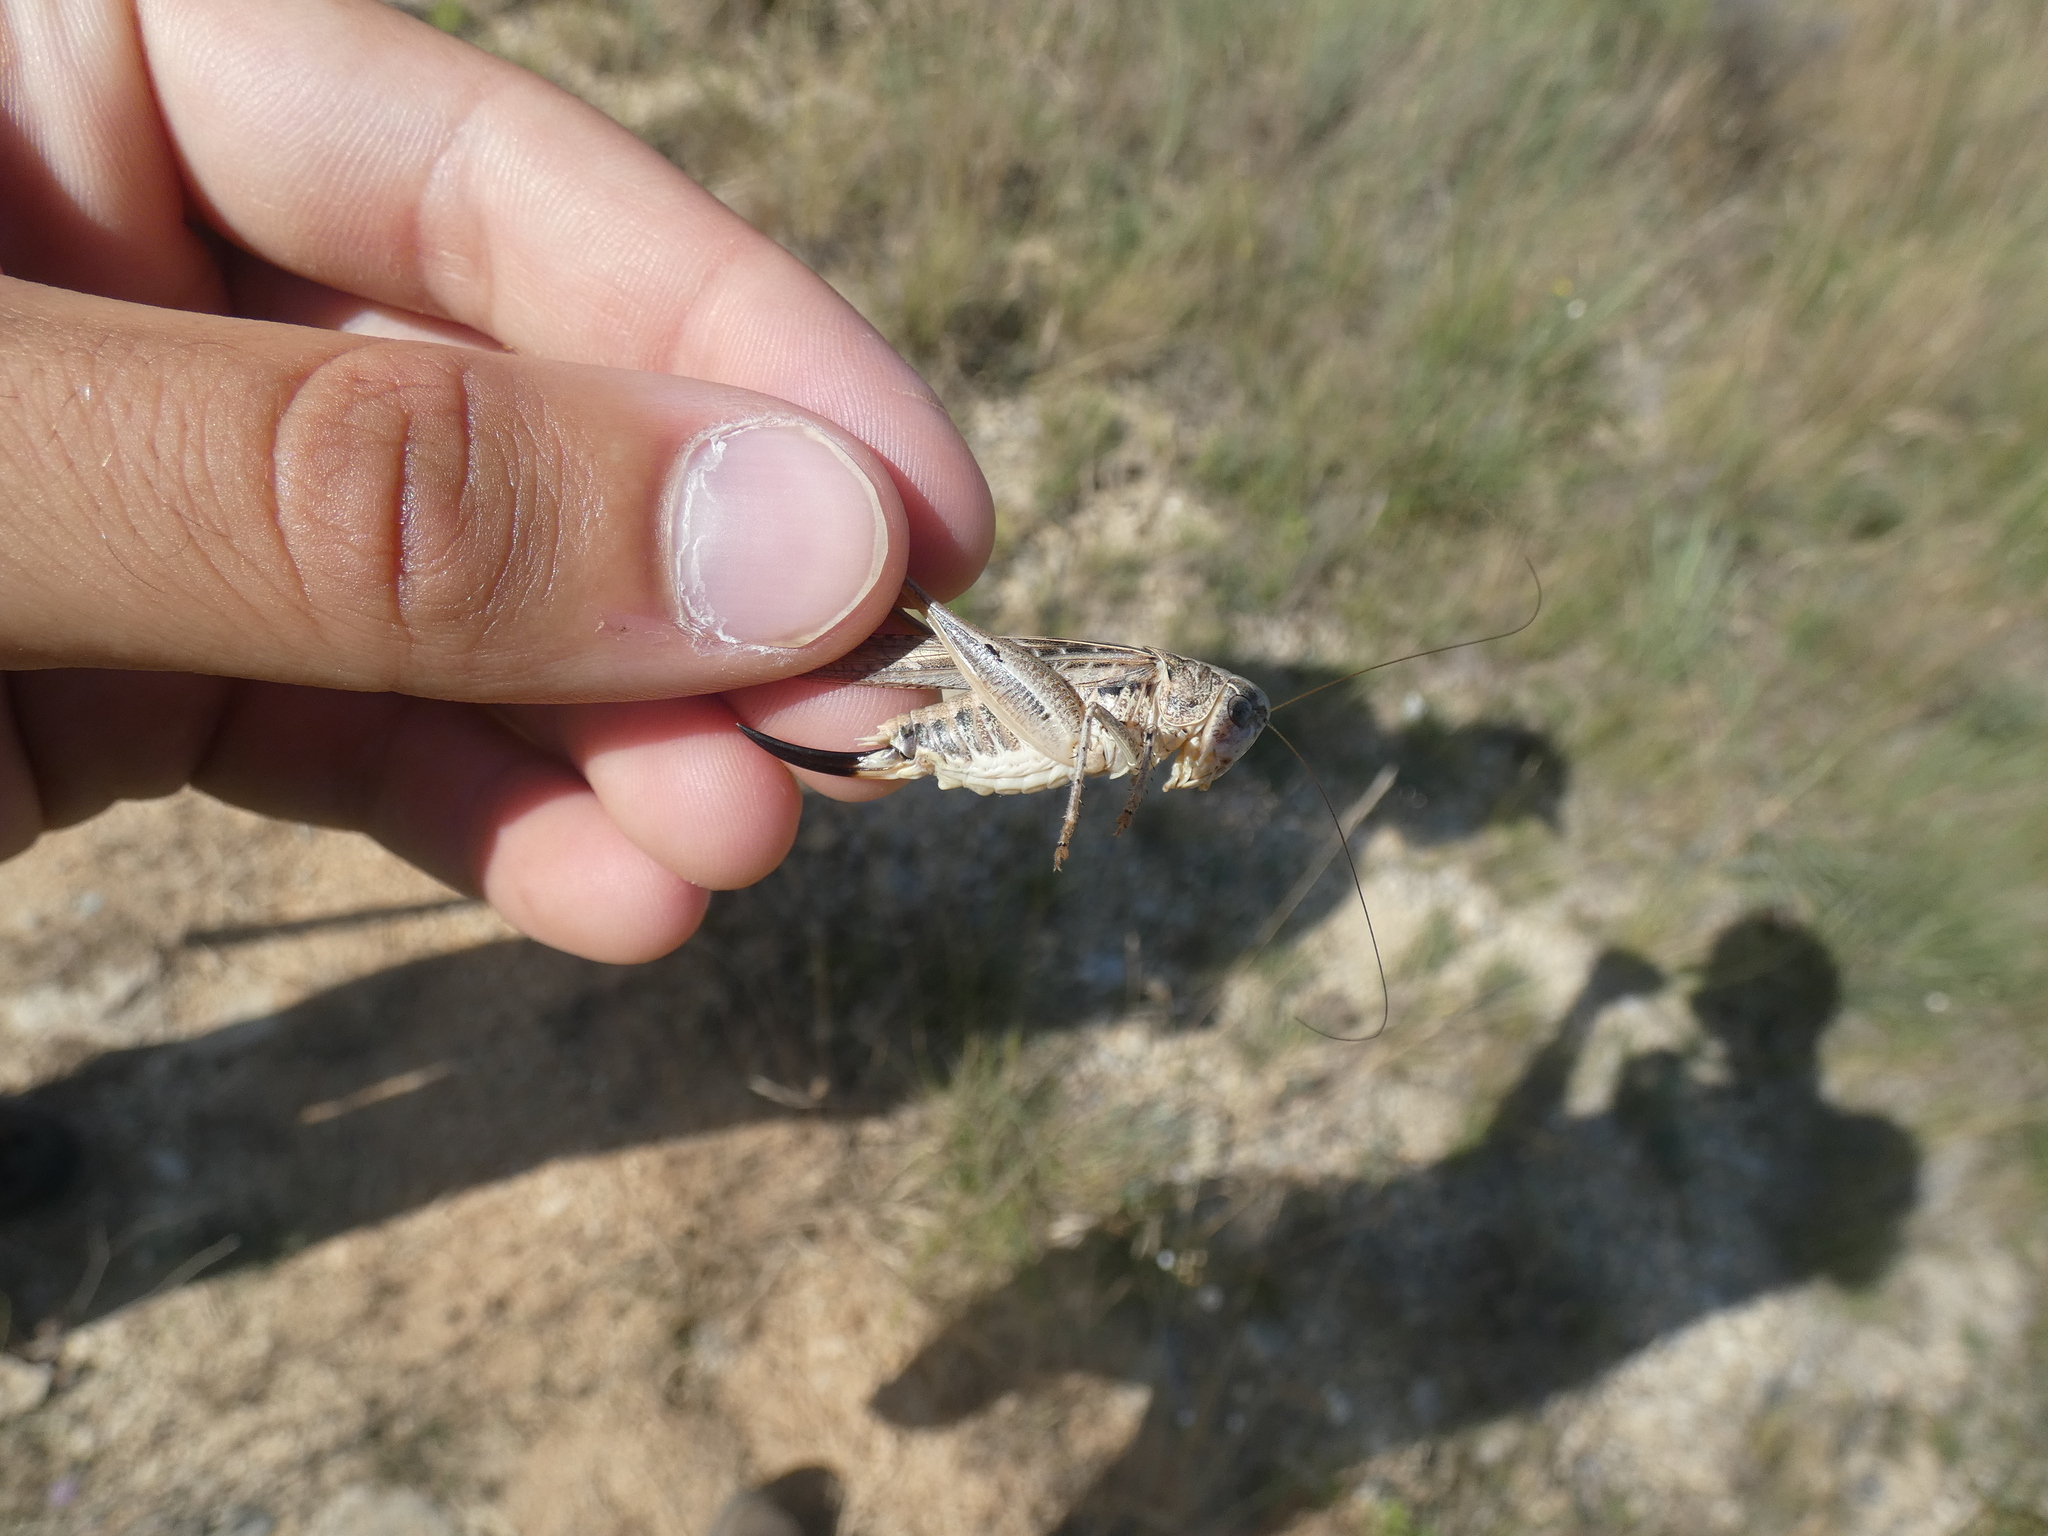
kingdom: Animalia
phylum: Arthropoda
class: Insecta
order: Orthoptera
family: Tettigoniidae
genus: Platycleis
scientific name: Platycleis affinis
